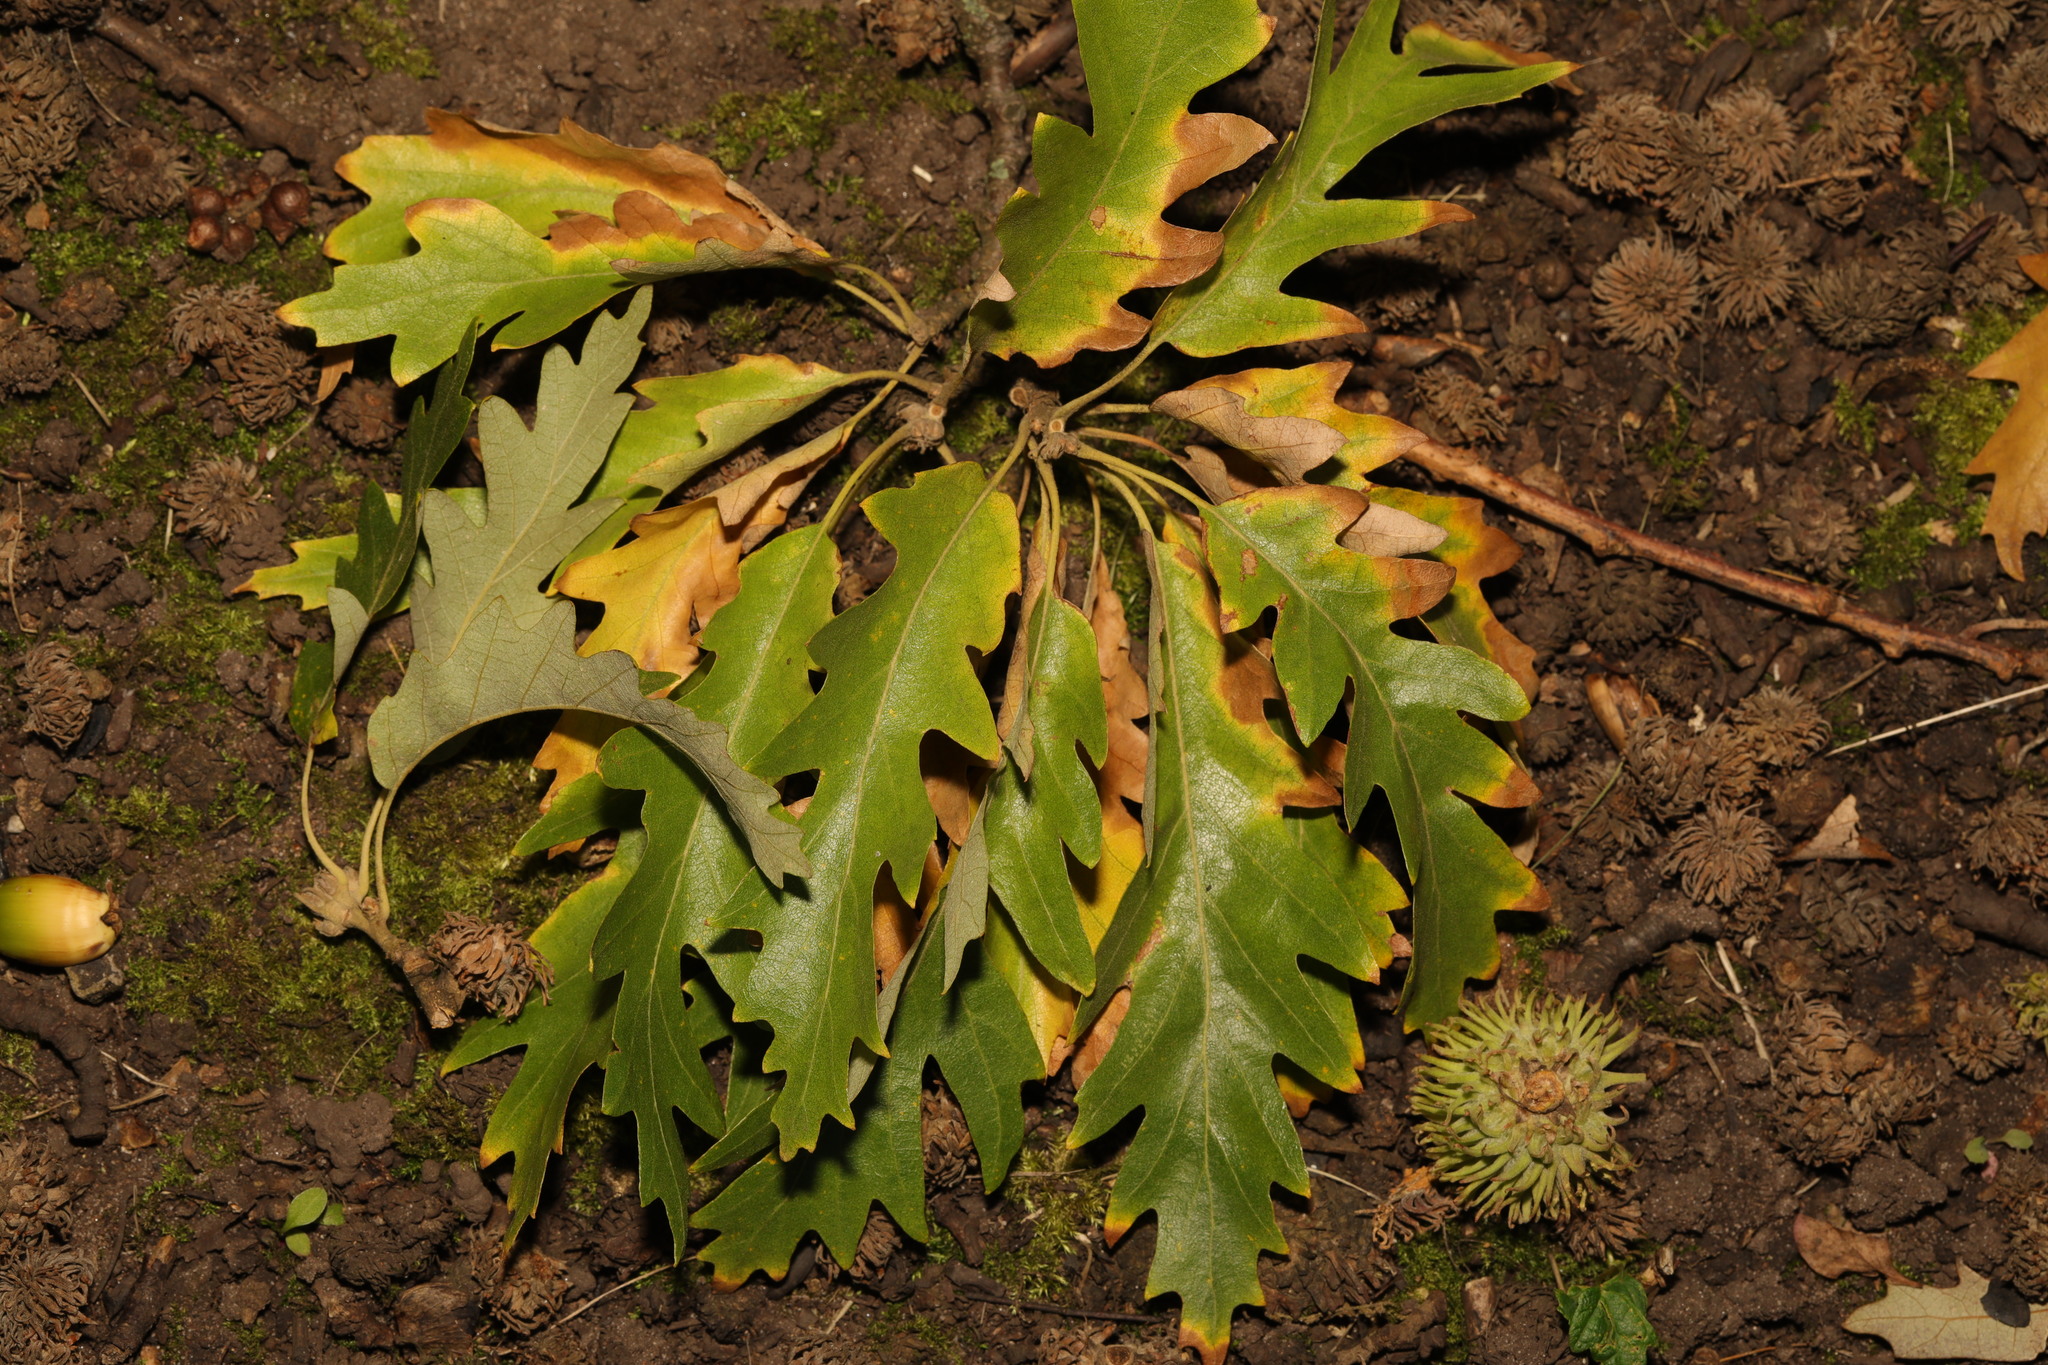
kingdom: Plantae
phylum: Tracheophyta
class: Magnoliopsida
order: Fagales
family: Fagaceae
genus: Quercus
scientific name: Quercus cerris
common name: Turkey oak
